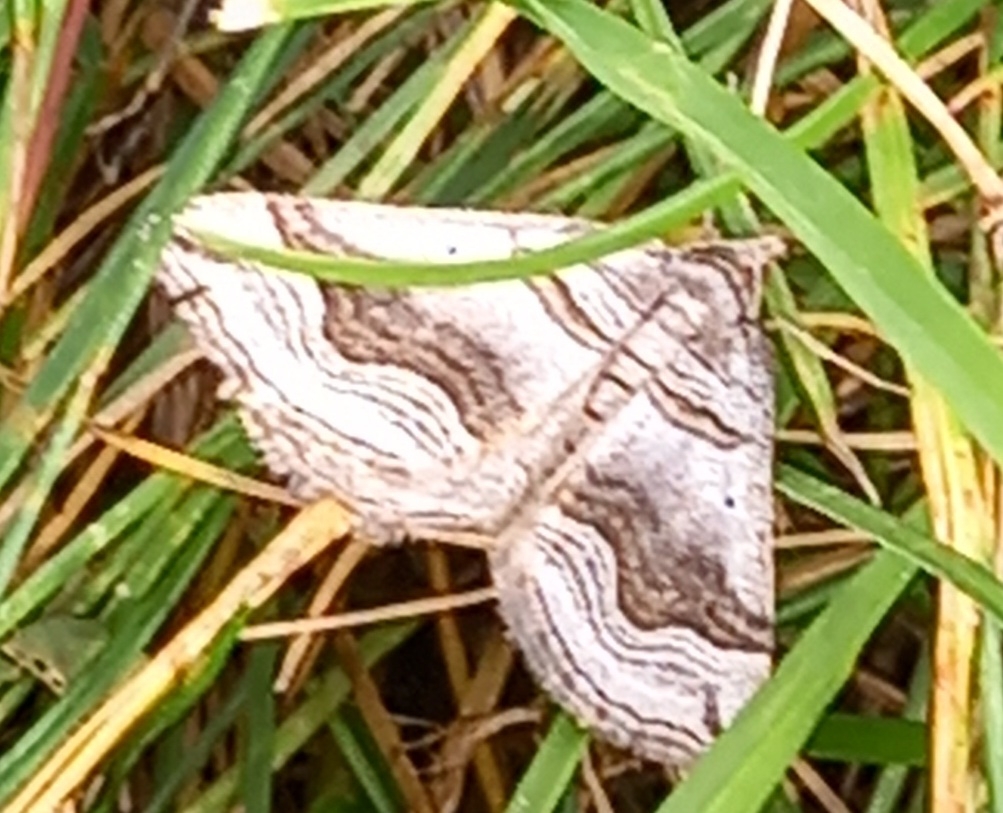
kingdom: Animalia
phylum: Arthropoda
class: Insecta
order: Lepidoptera
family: Geometridae
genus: Scotopteryx
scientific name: Scotopteryx peribolata
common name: Spanish carpet
